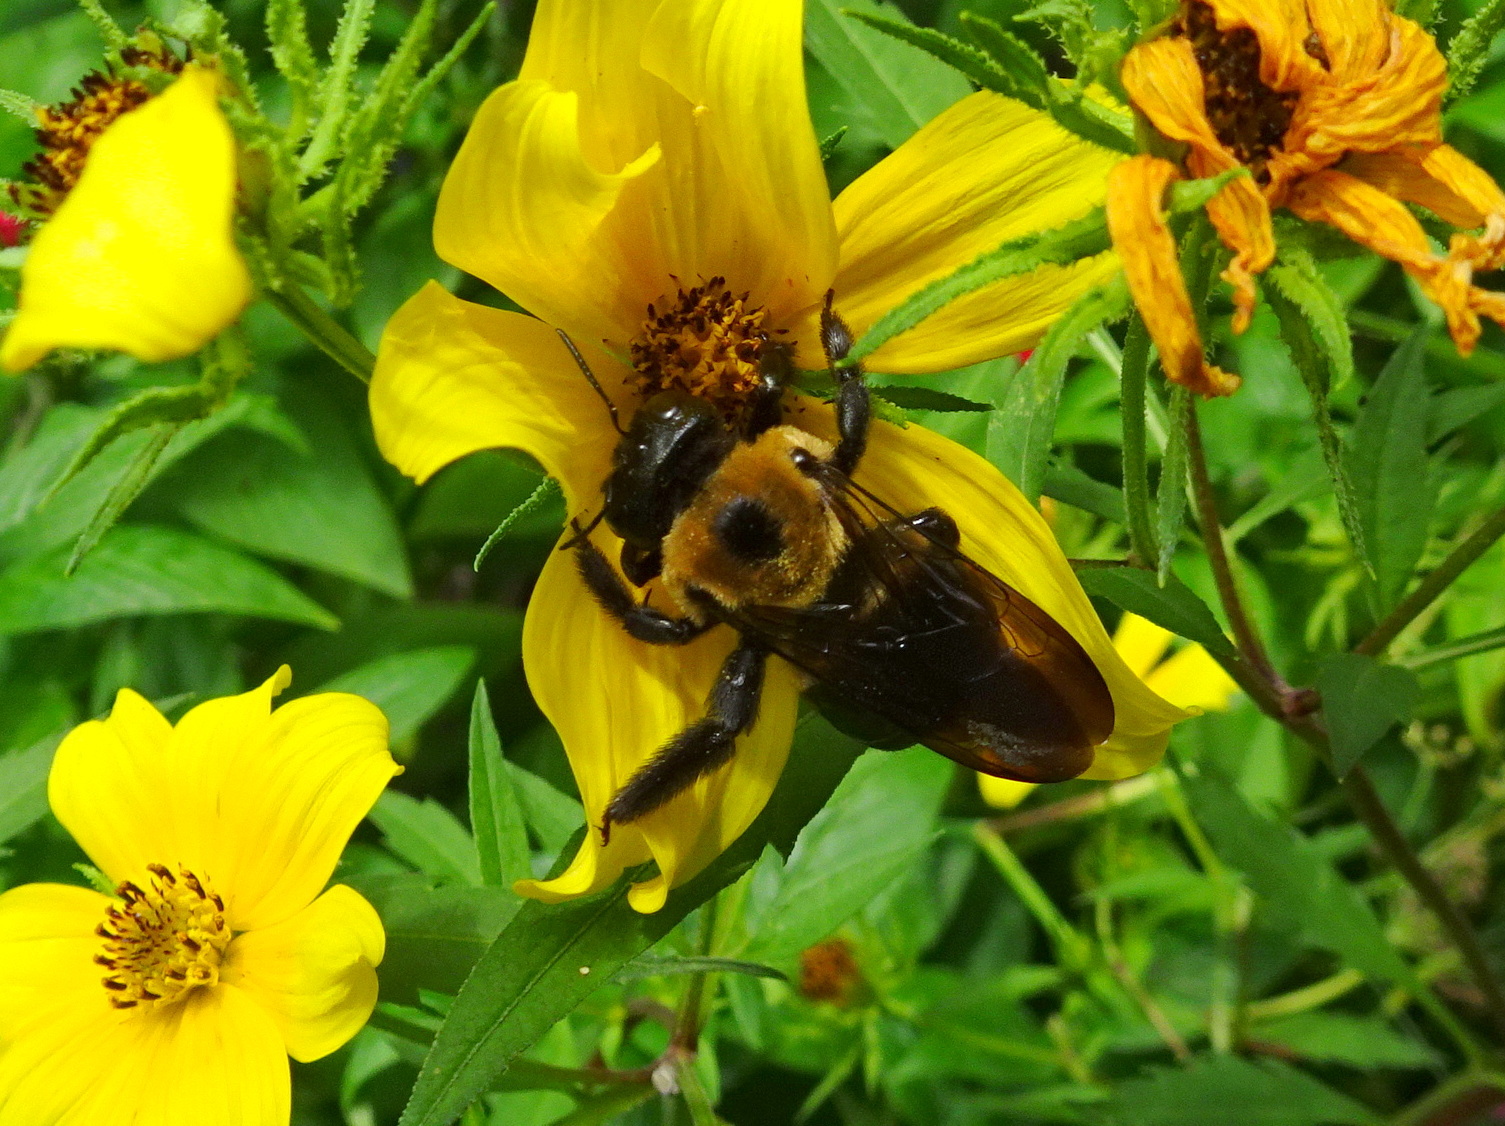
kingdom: Animalia
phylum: Arthropoda
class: Insecta
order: Hymenoptera
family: Apidae
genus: Xylocopa
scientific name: Xylocopa virginica
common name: Carpenter bee
